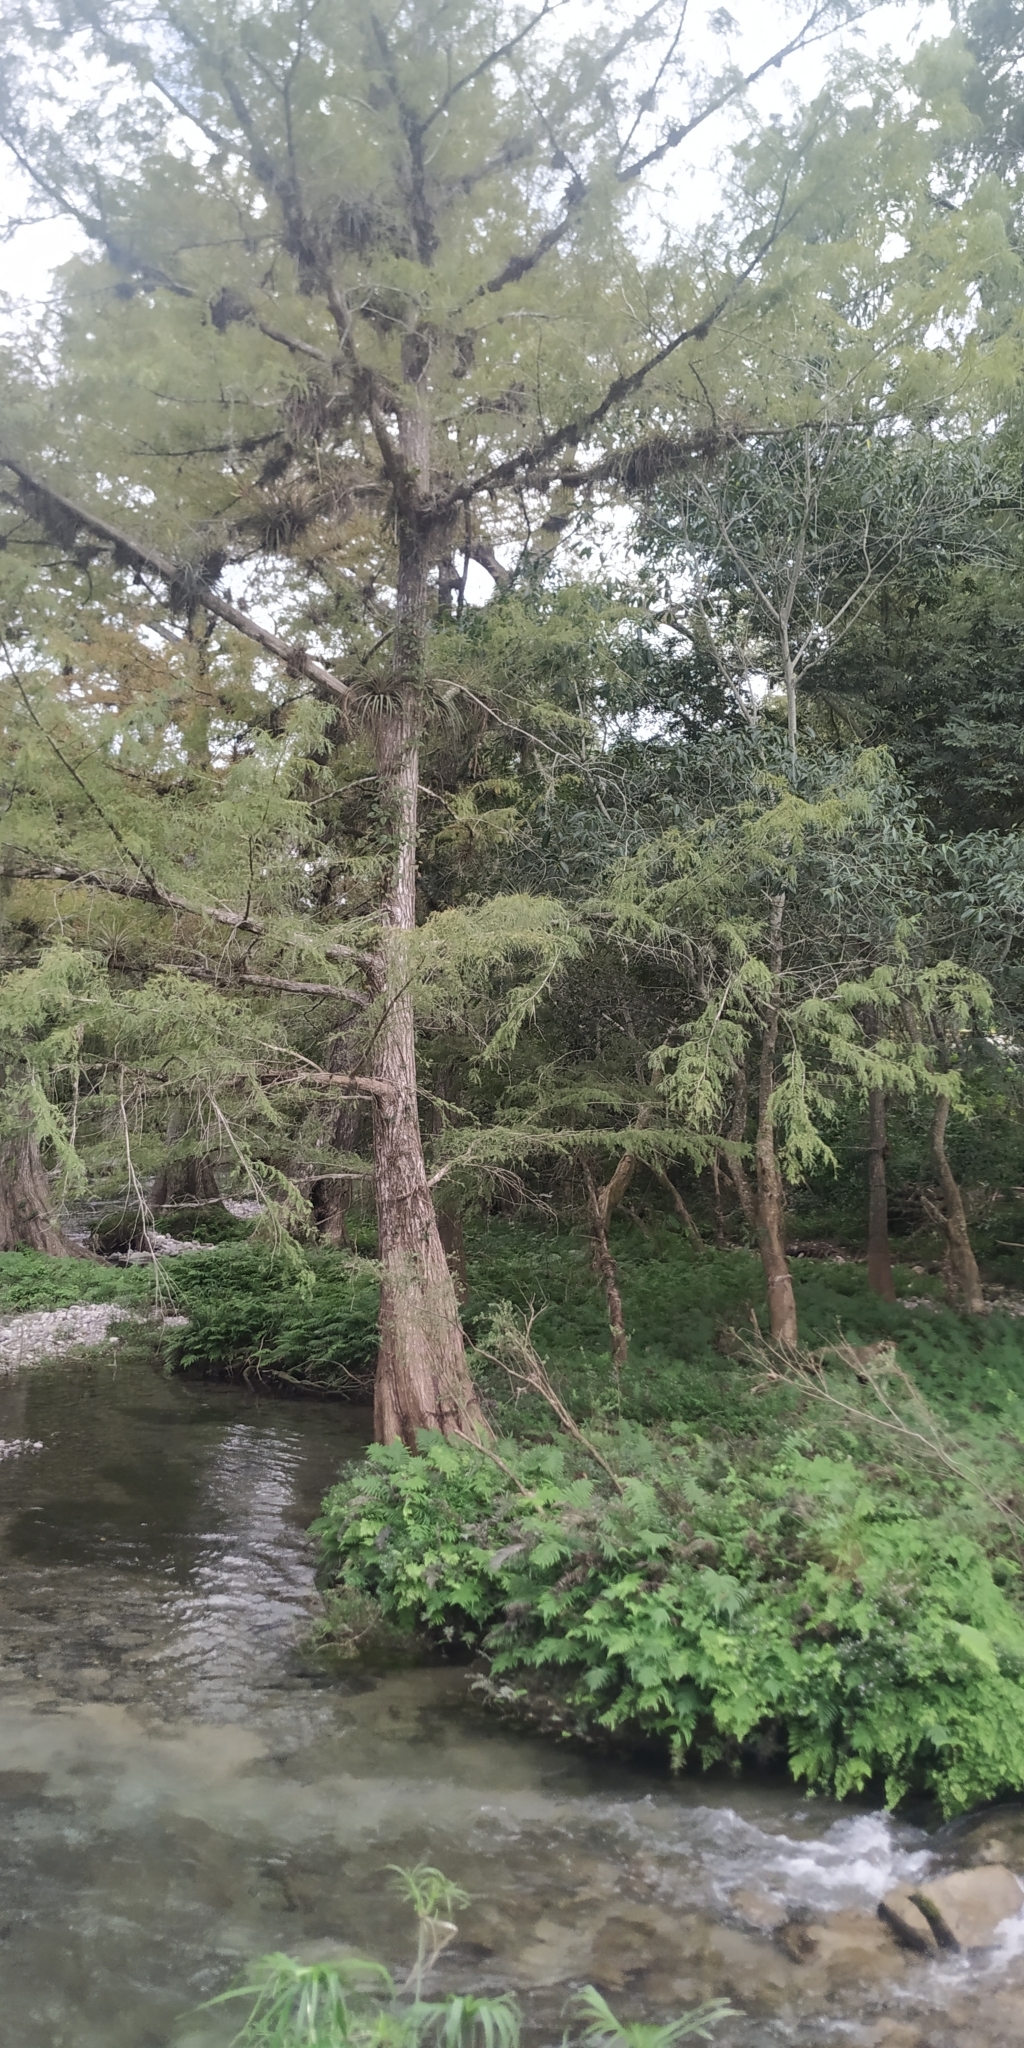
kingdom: Plantae
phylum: Tracheophyta
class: Pinopsida
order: Pinales
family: Cupressaceae
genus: Taxodium
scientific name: Taxodium mucronatum
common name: Montezume bald cypress
